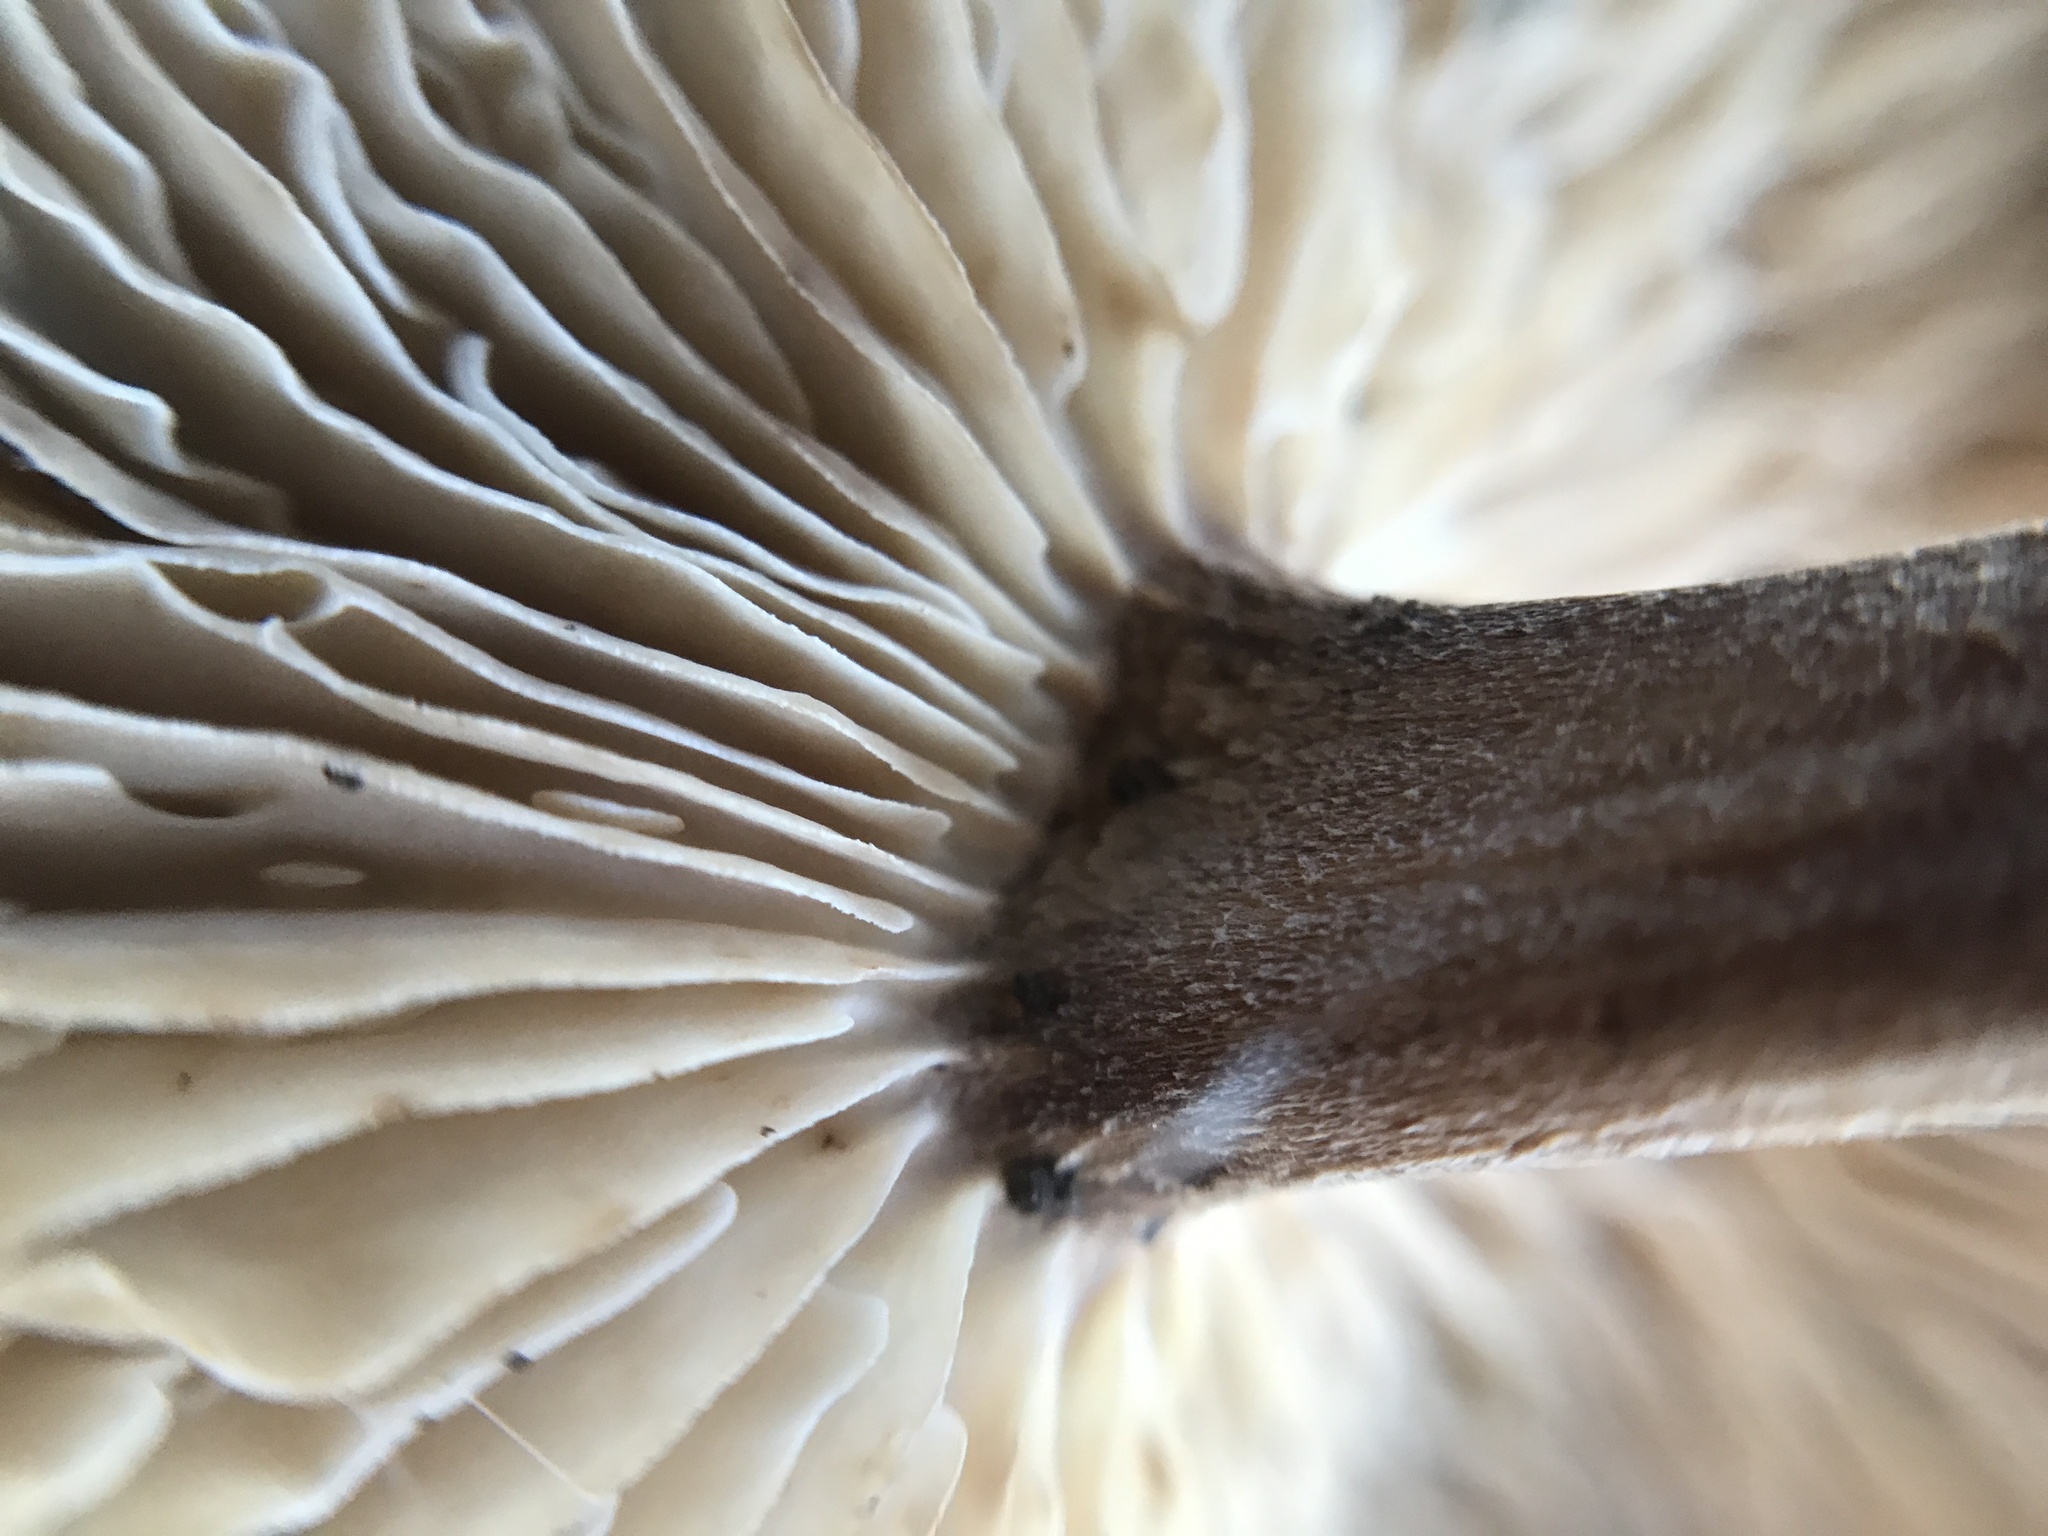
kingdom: Fungi
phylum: Basidiomycota
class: Agaricomycetes
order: Agaricales
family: Omphalotaceae
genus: Collybiopsis
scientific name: Collybiopsis luxurians
